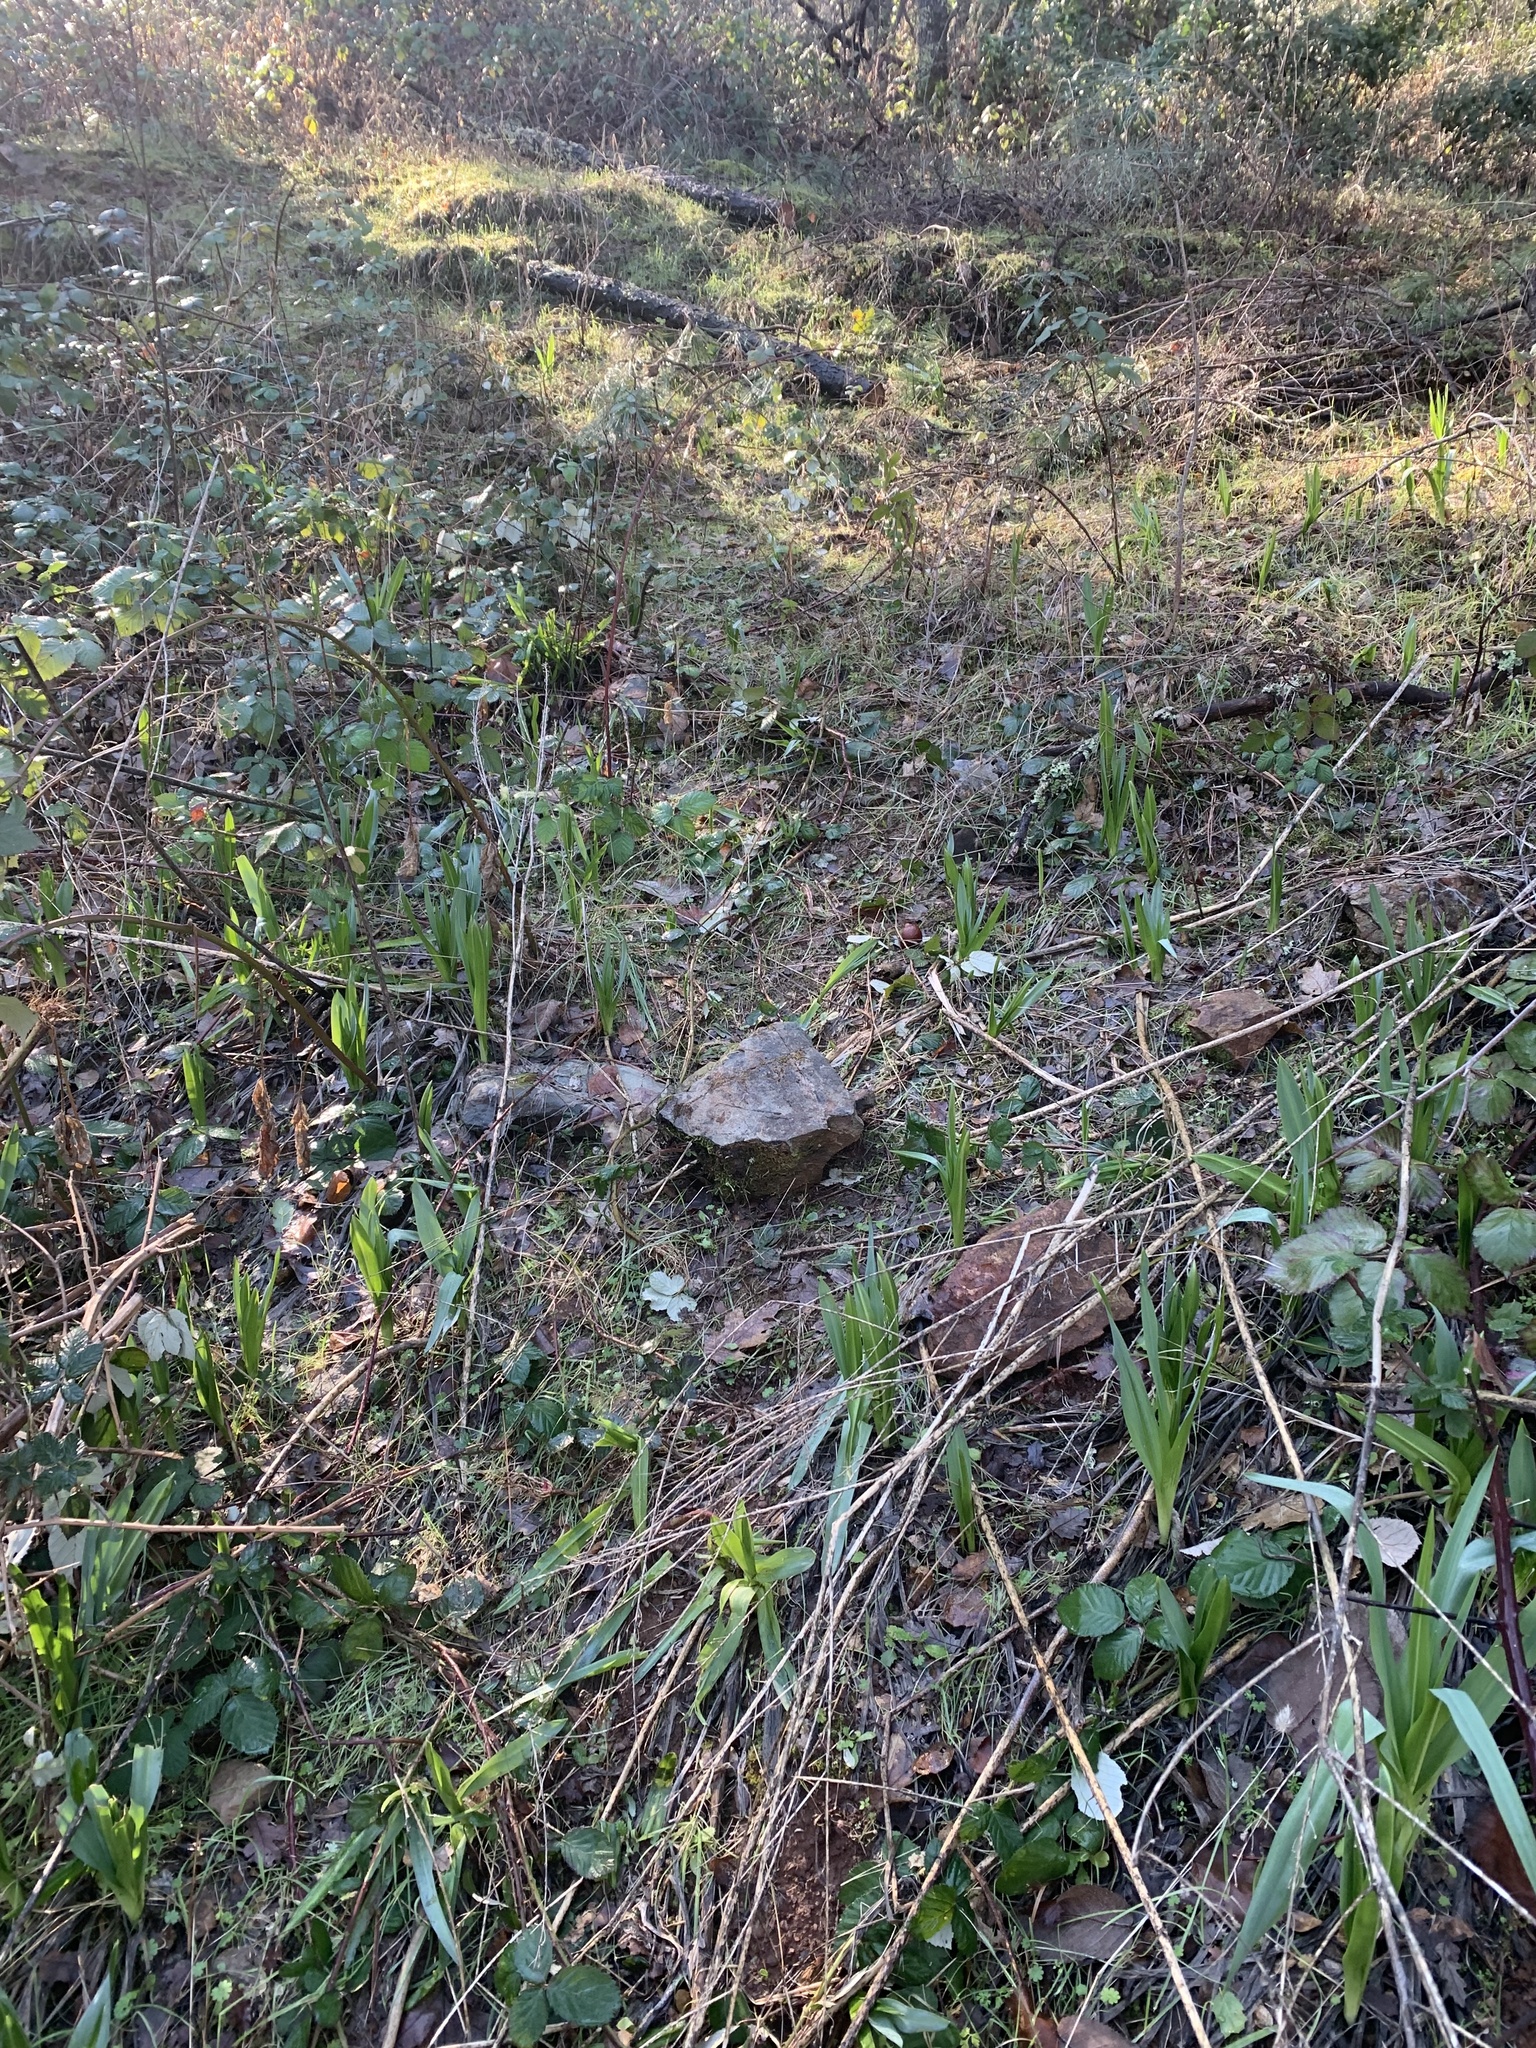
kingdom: Plantae
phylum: Tracheophyta
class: Liliopsida
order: Asparagales
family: Asparagaceae
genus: Chlorogalum
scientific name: Chlorogalum pomeridianum
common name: Amole
